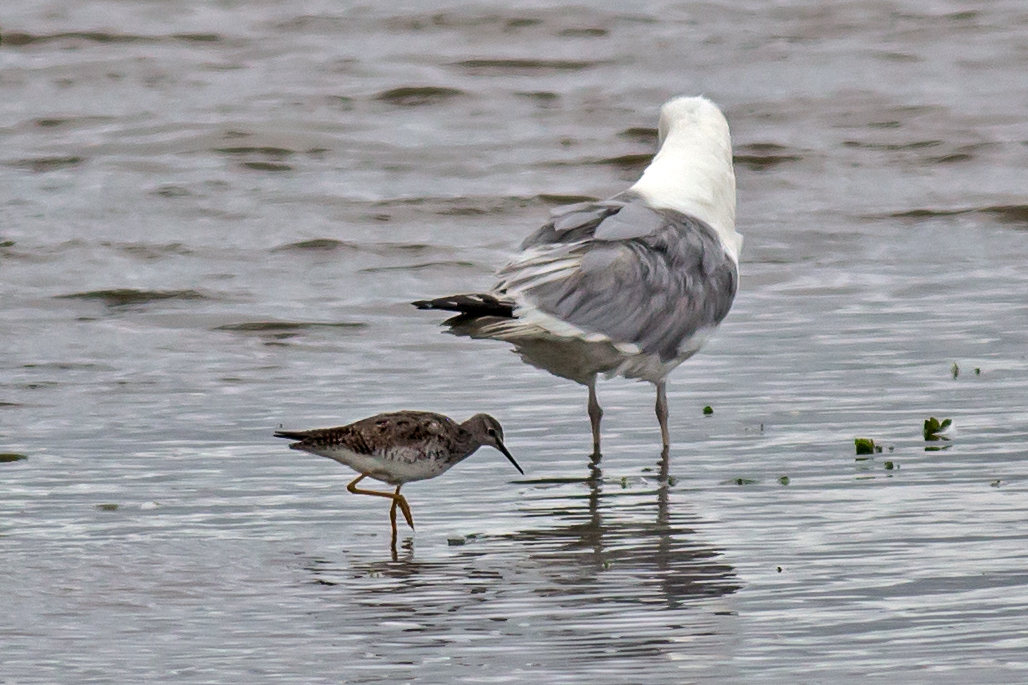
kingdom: Animalia
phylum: Chordata
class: Aves
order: Charadriiformes
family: Scolopacidae
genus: Tringa
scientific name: Tringa flavipes
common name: Lesser yellowlegs
